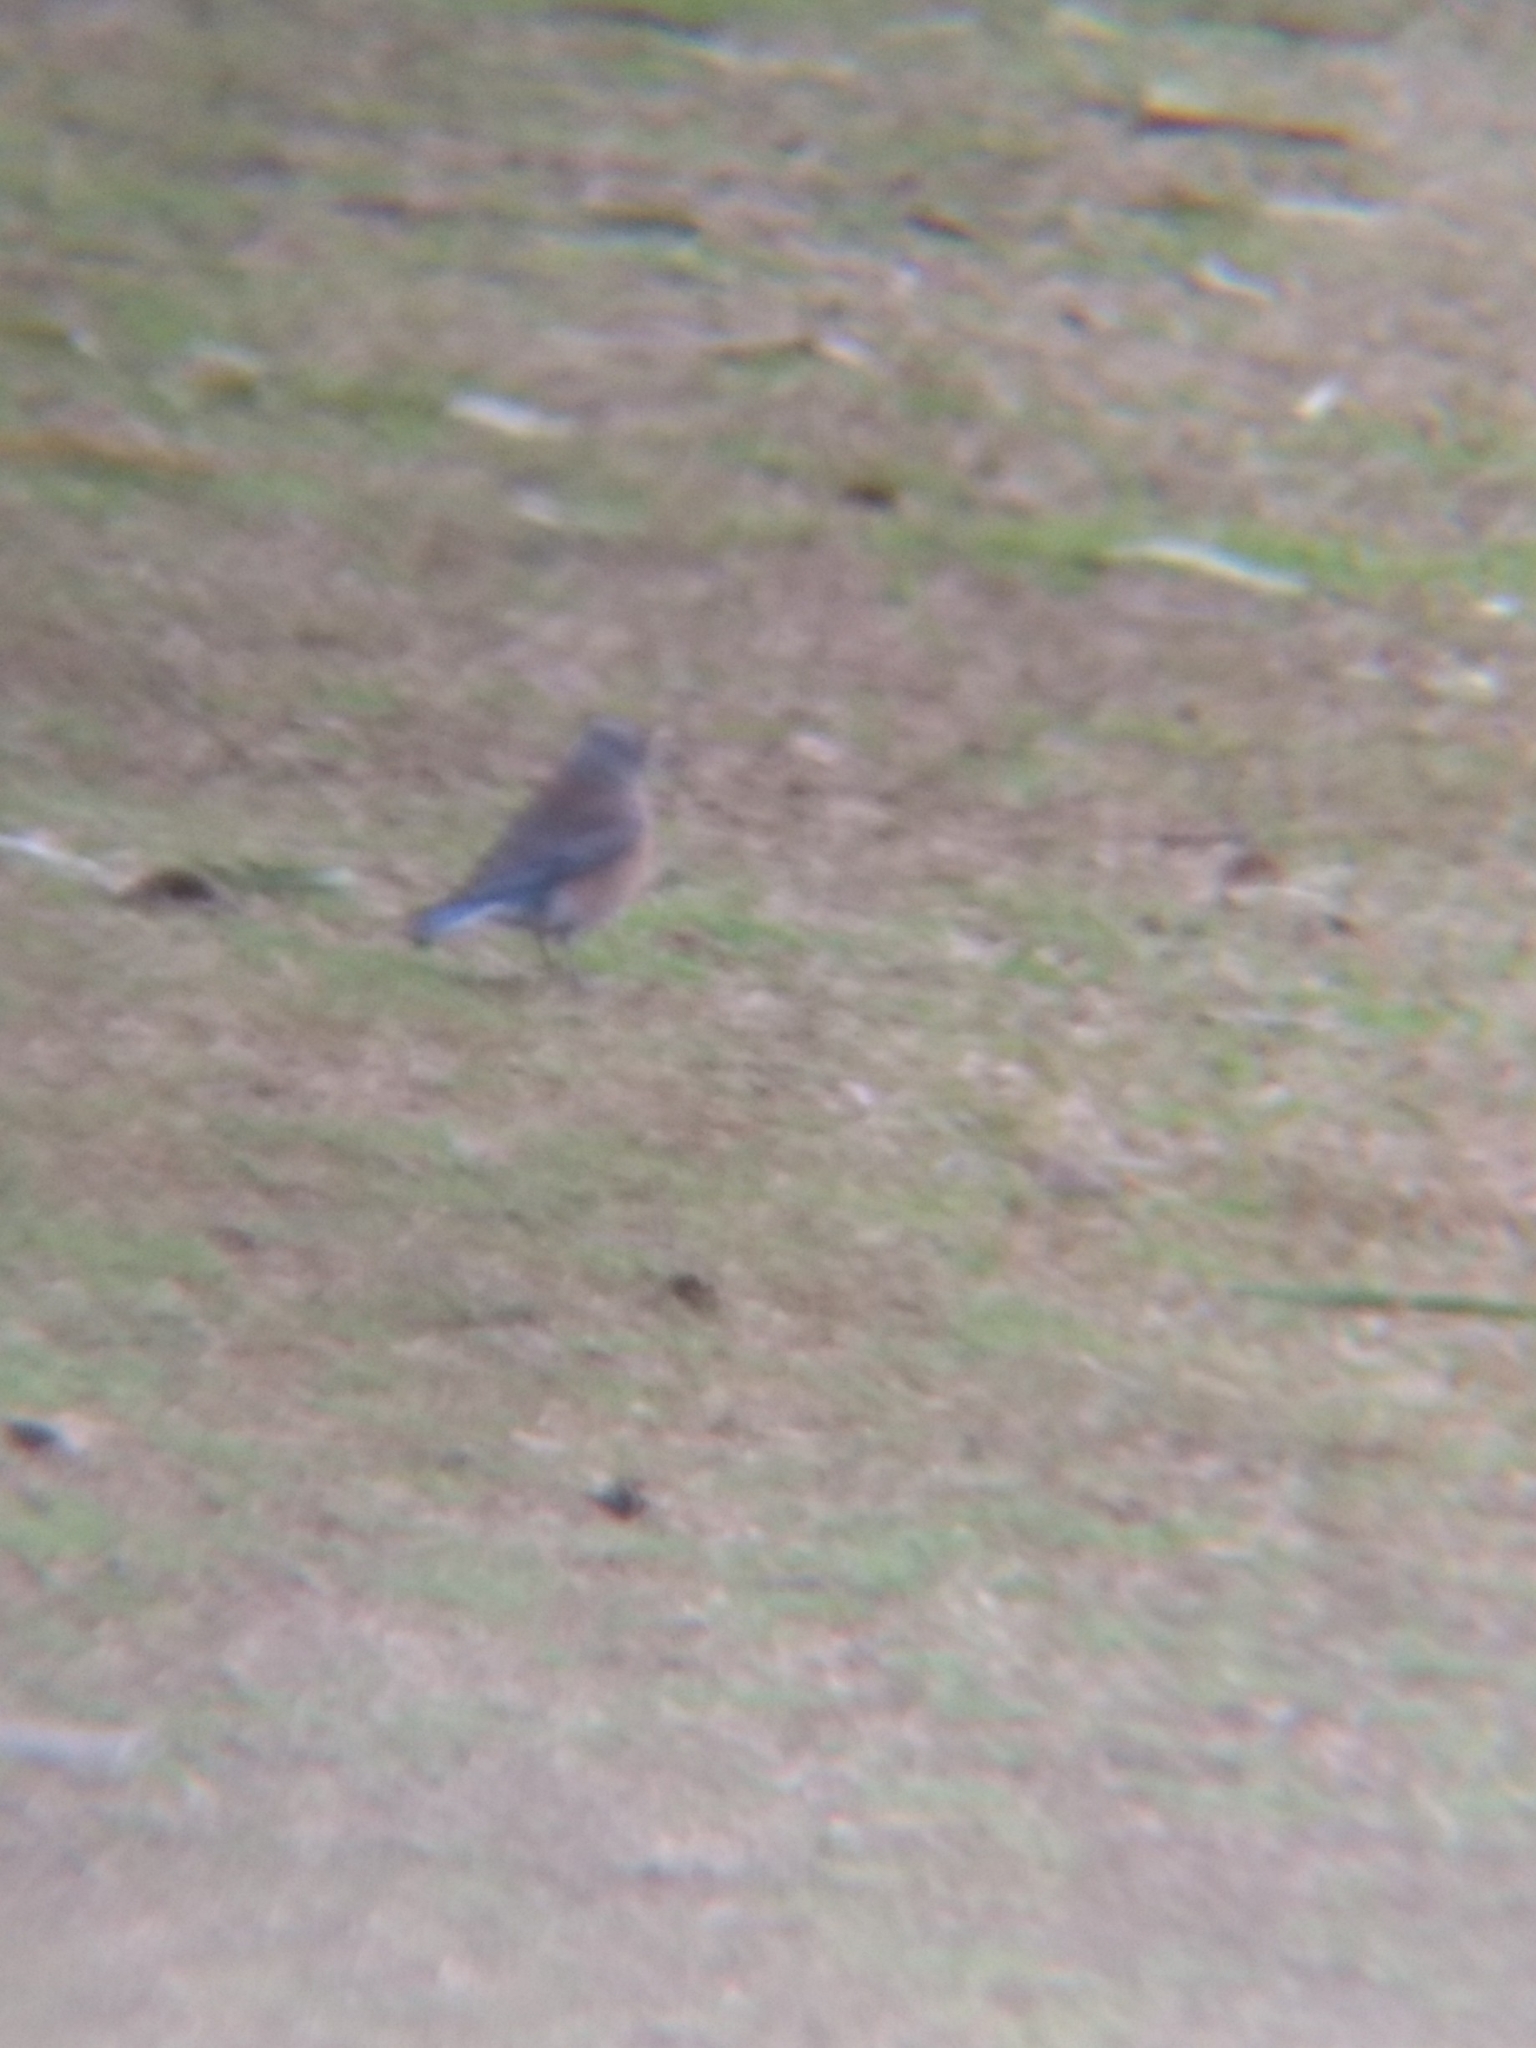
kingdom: Animalia
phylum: Chordata
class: Aves
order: Passeriformes
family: Turdidae
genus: Sialia
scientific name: Sialia mexicana
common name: Western bluebird
